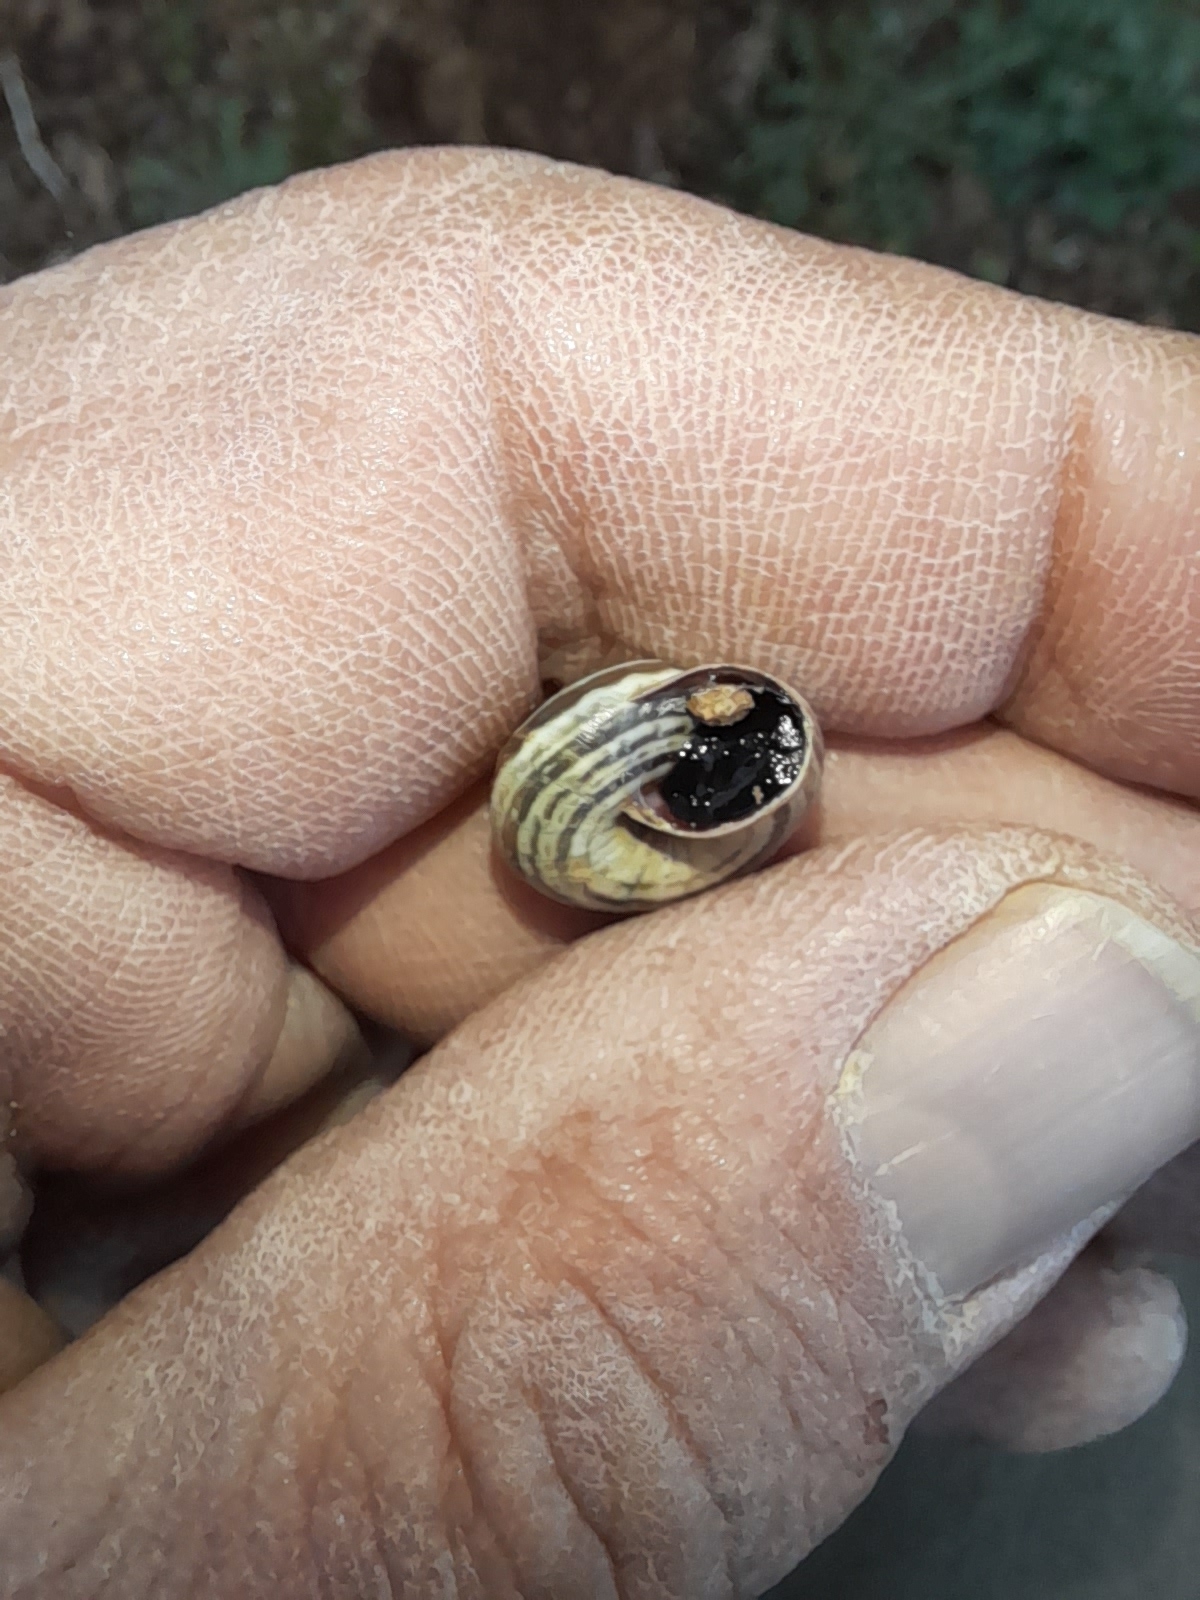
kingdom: Animalia
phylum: Mollusca
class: Gastropoda
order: Stylommatophora
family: Geomitridae
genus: Cernuella
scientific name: Cernuella virgata
